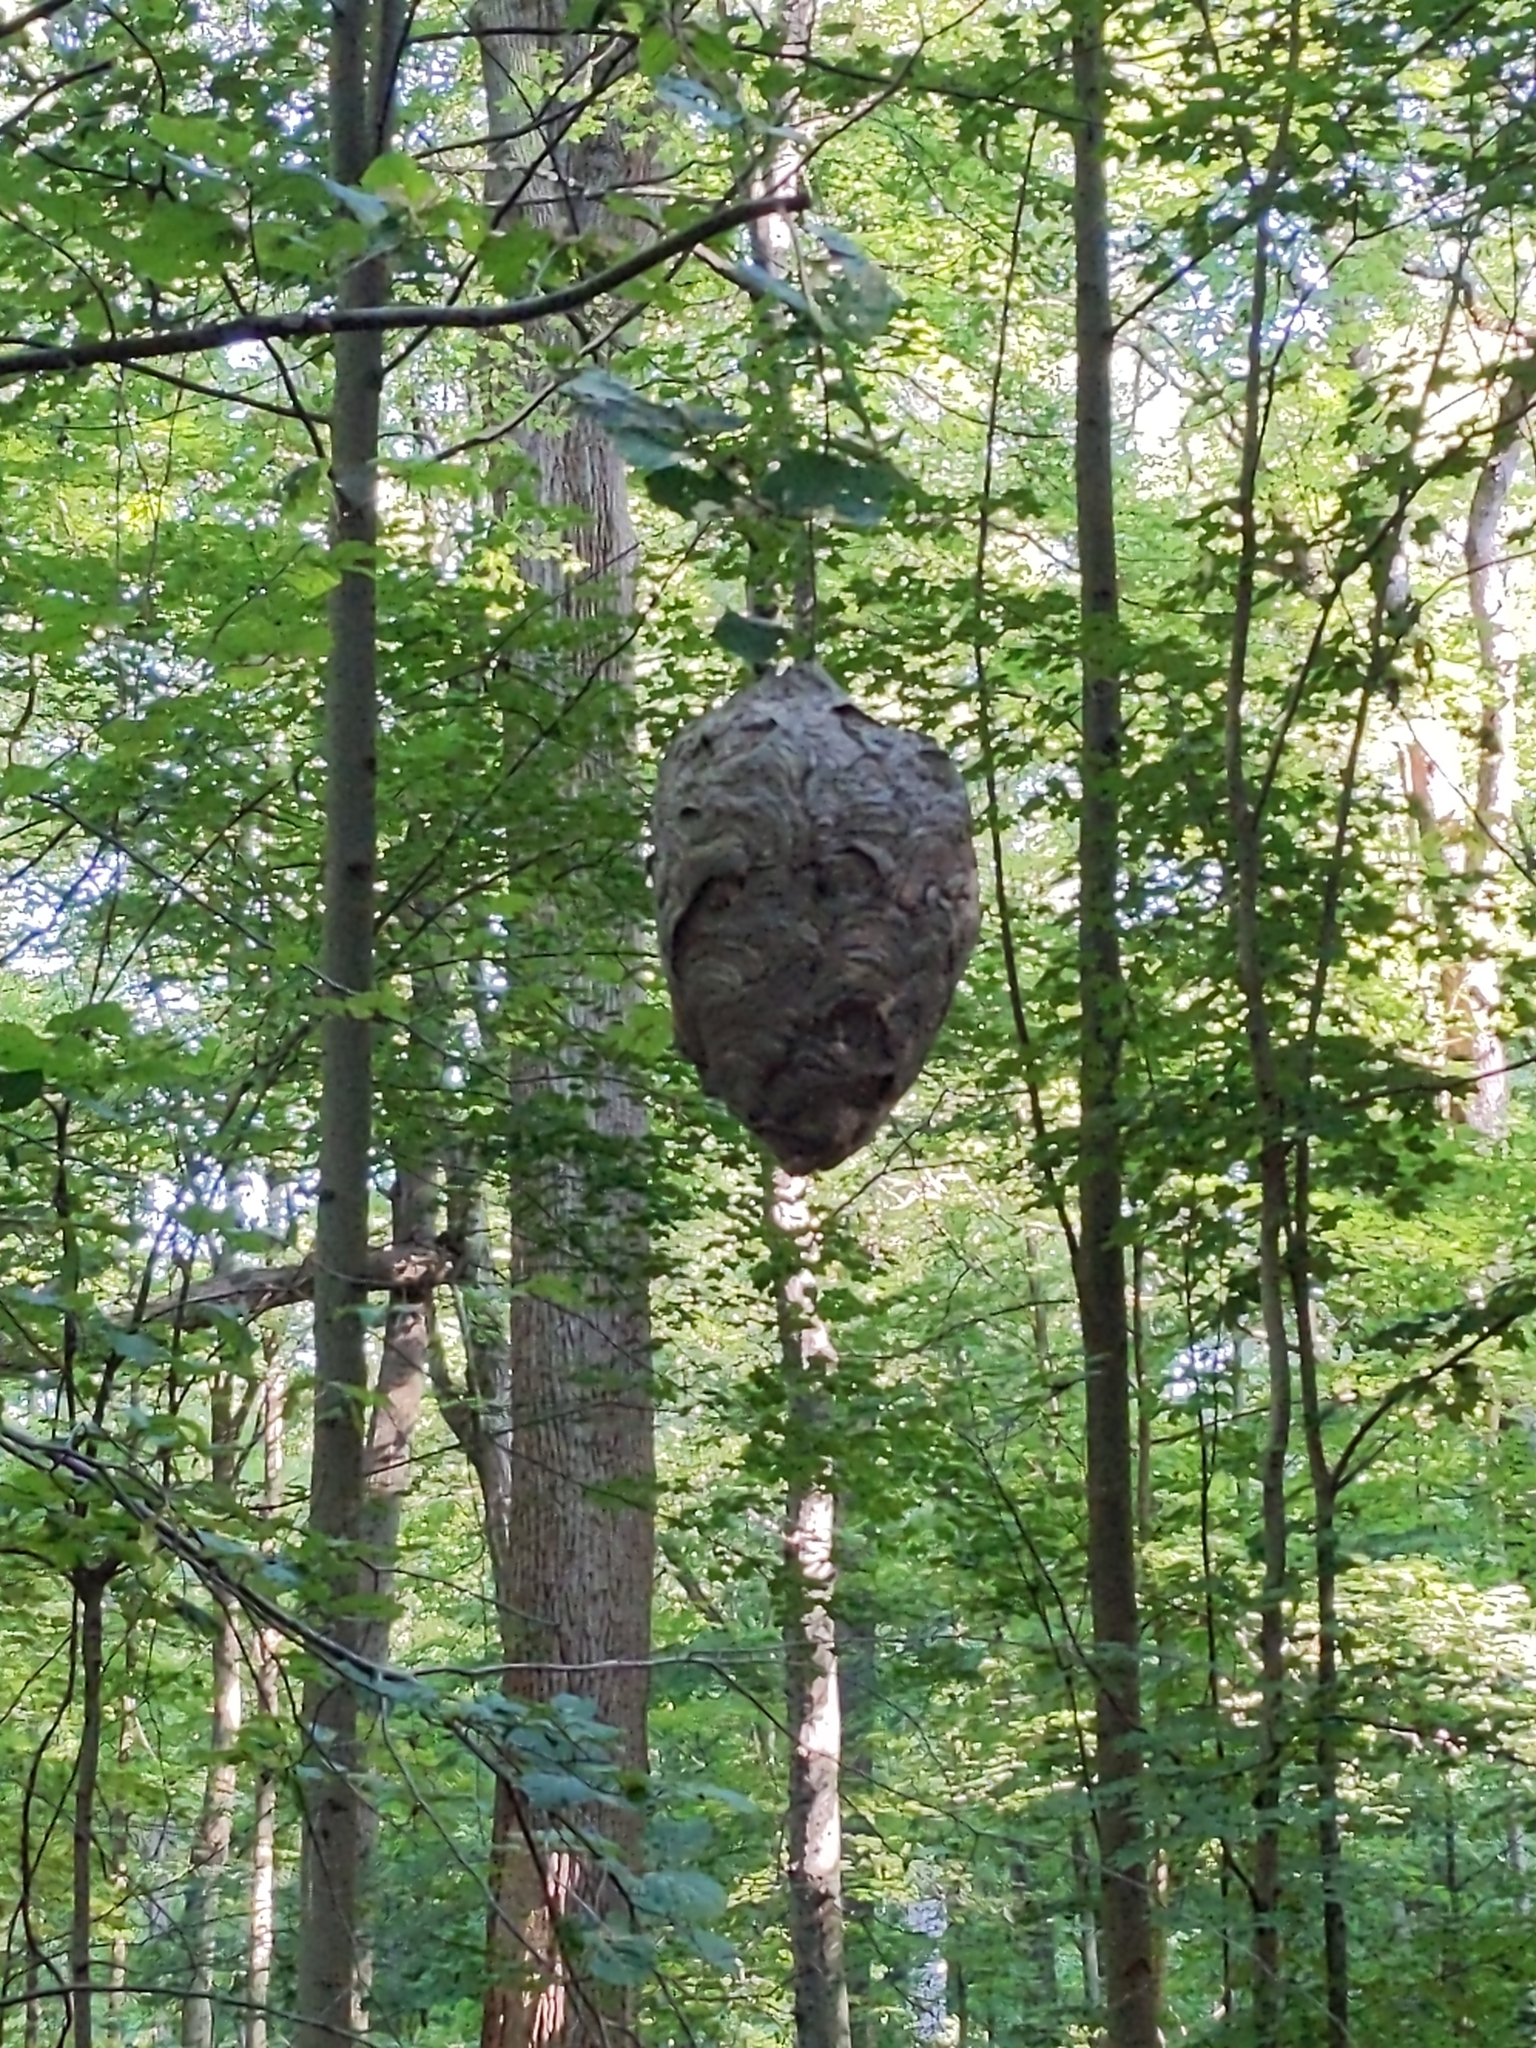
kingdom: Animalia
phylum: Arthropoda
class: Insecta
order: Hymenoptera
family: Vespidae
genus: Dolichovespula
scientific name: Dolichovespula maculata
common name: Bald-faced hornet
